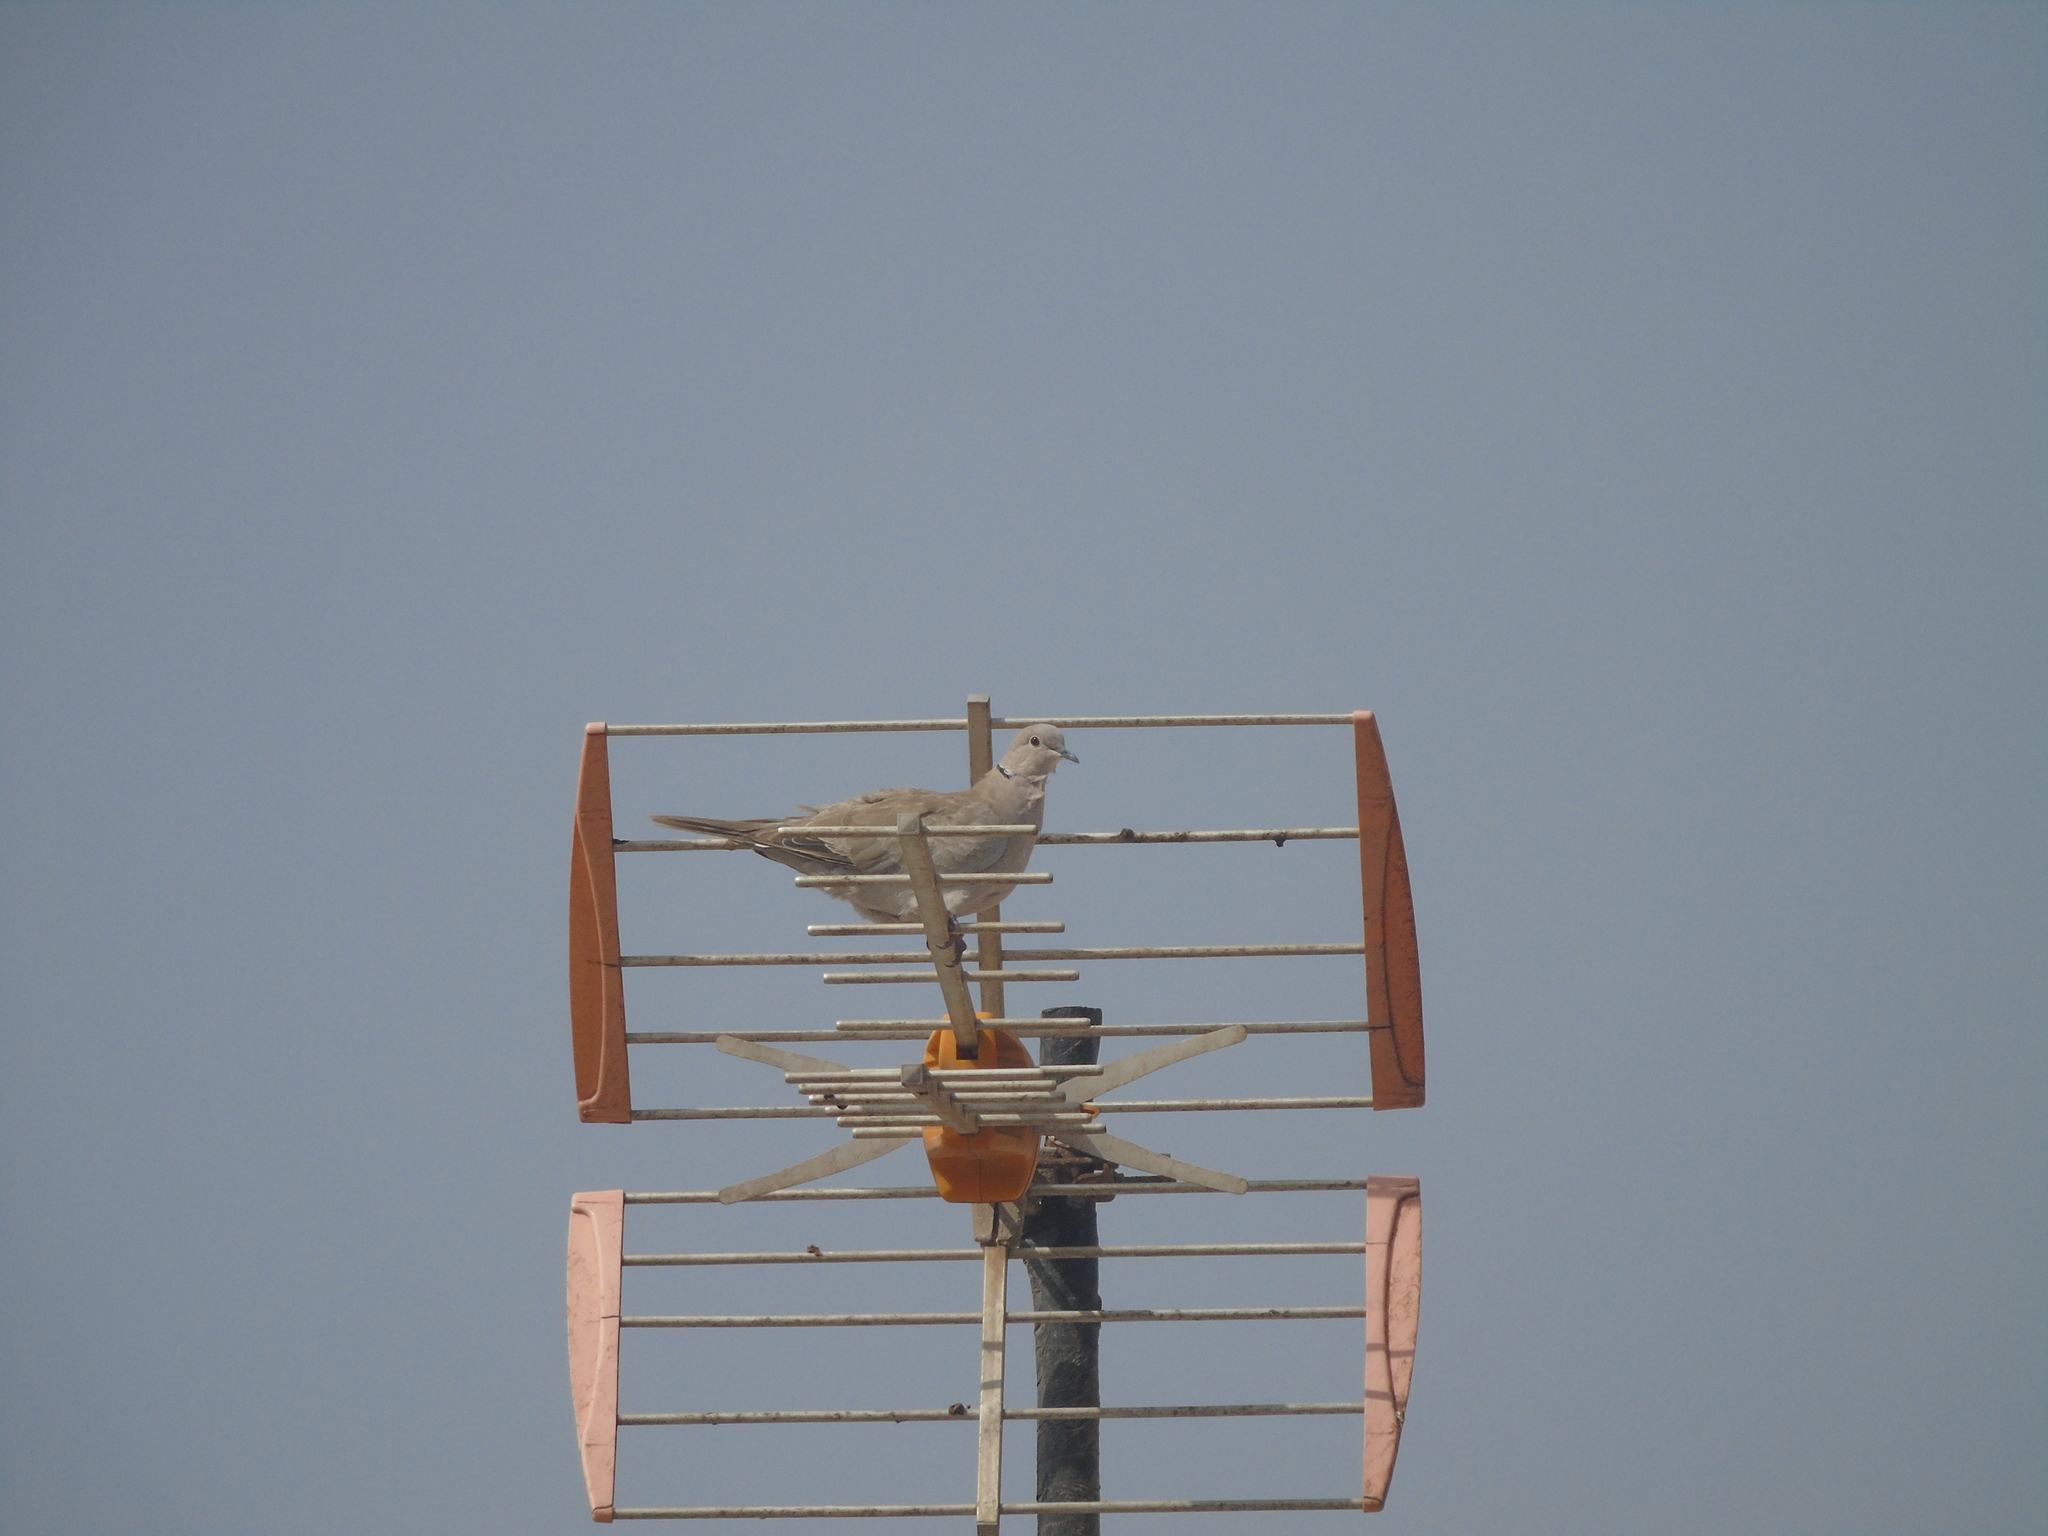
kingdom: Animalia
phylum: Chordata
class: Aves
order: Columbiformes
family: Columbidae
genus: Streptopelia
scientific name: Streptopelia decaocto
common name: Eurasian collared dove
